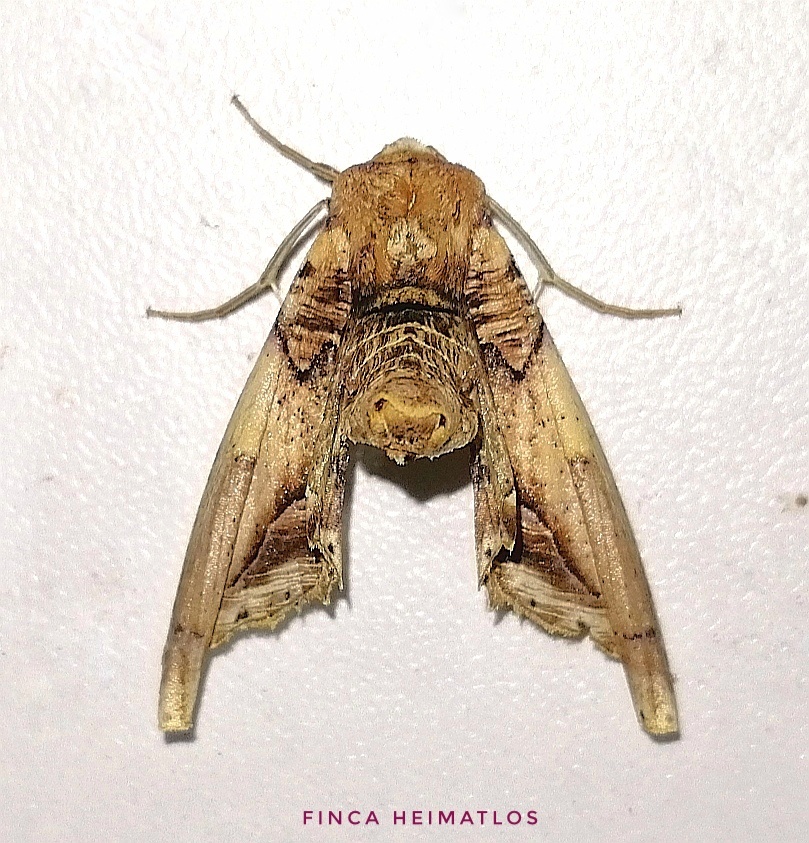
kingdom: Animalia
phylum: Arthropoda
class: Insecta
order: Lepidoptera
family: Geometridae
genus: Pero
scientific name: Pero cyclodaria
